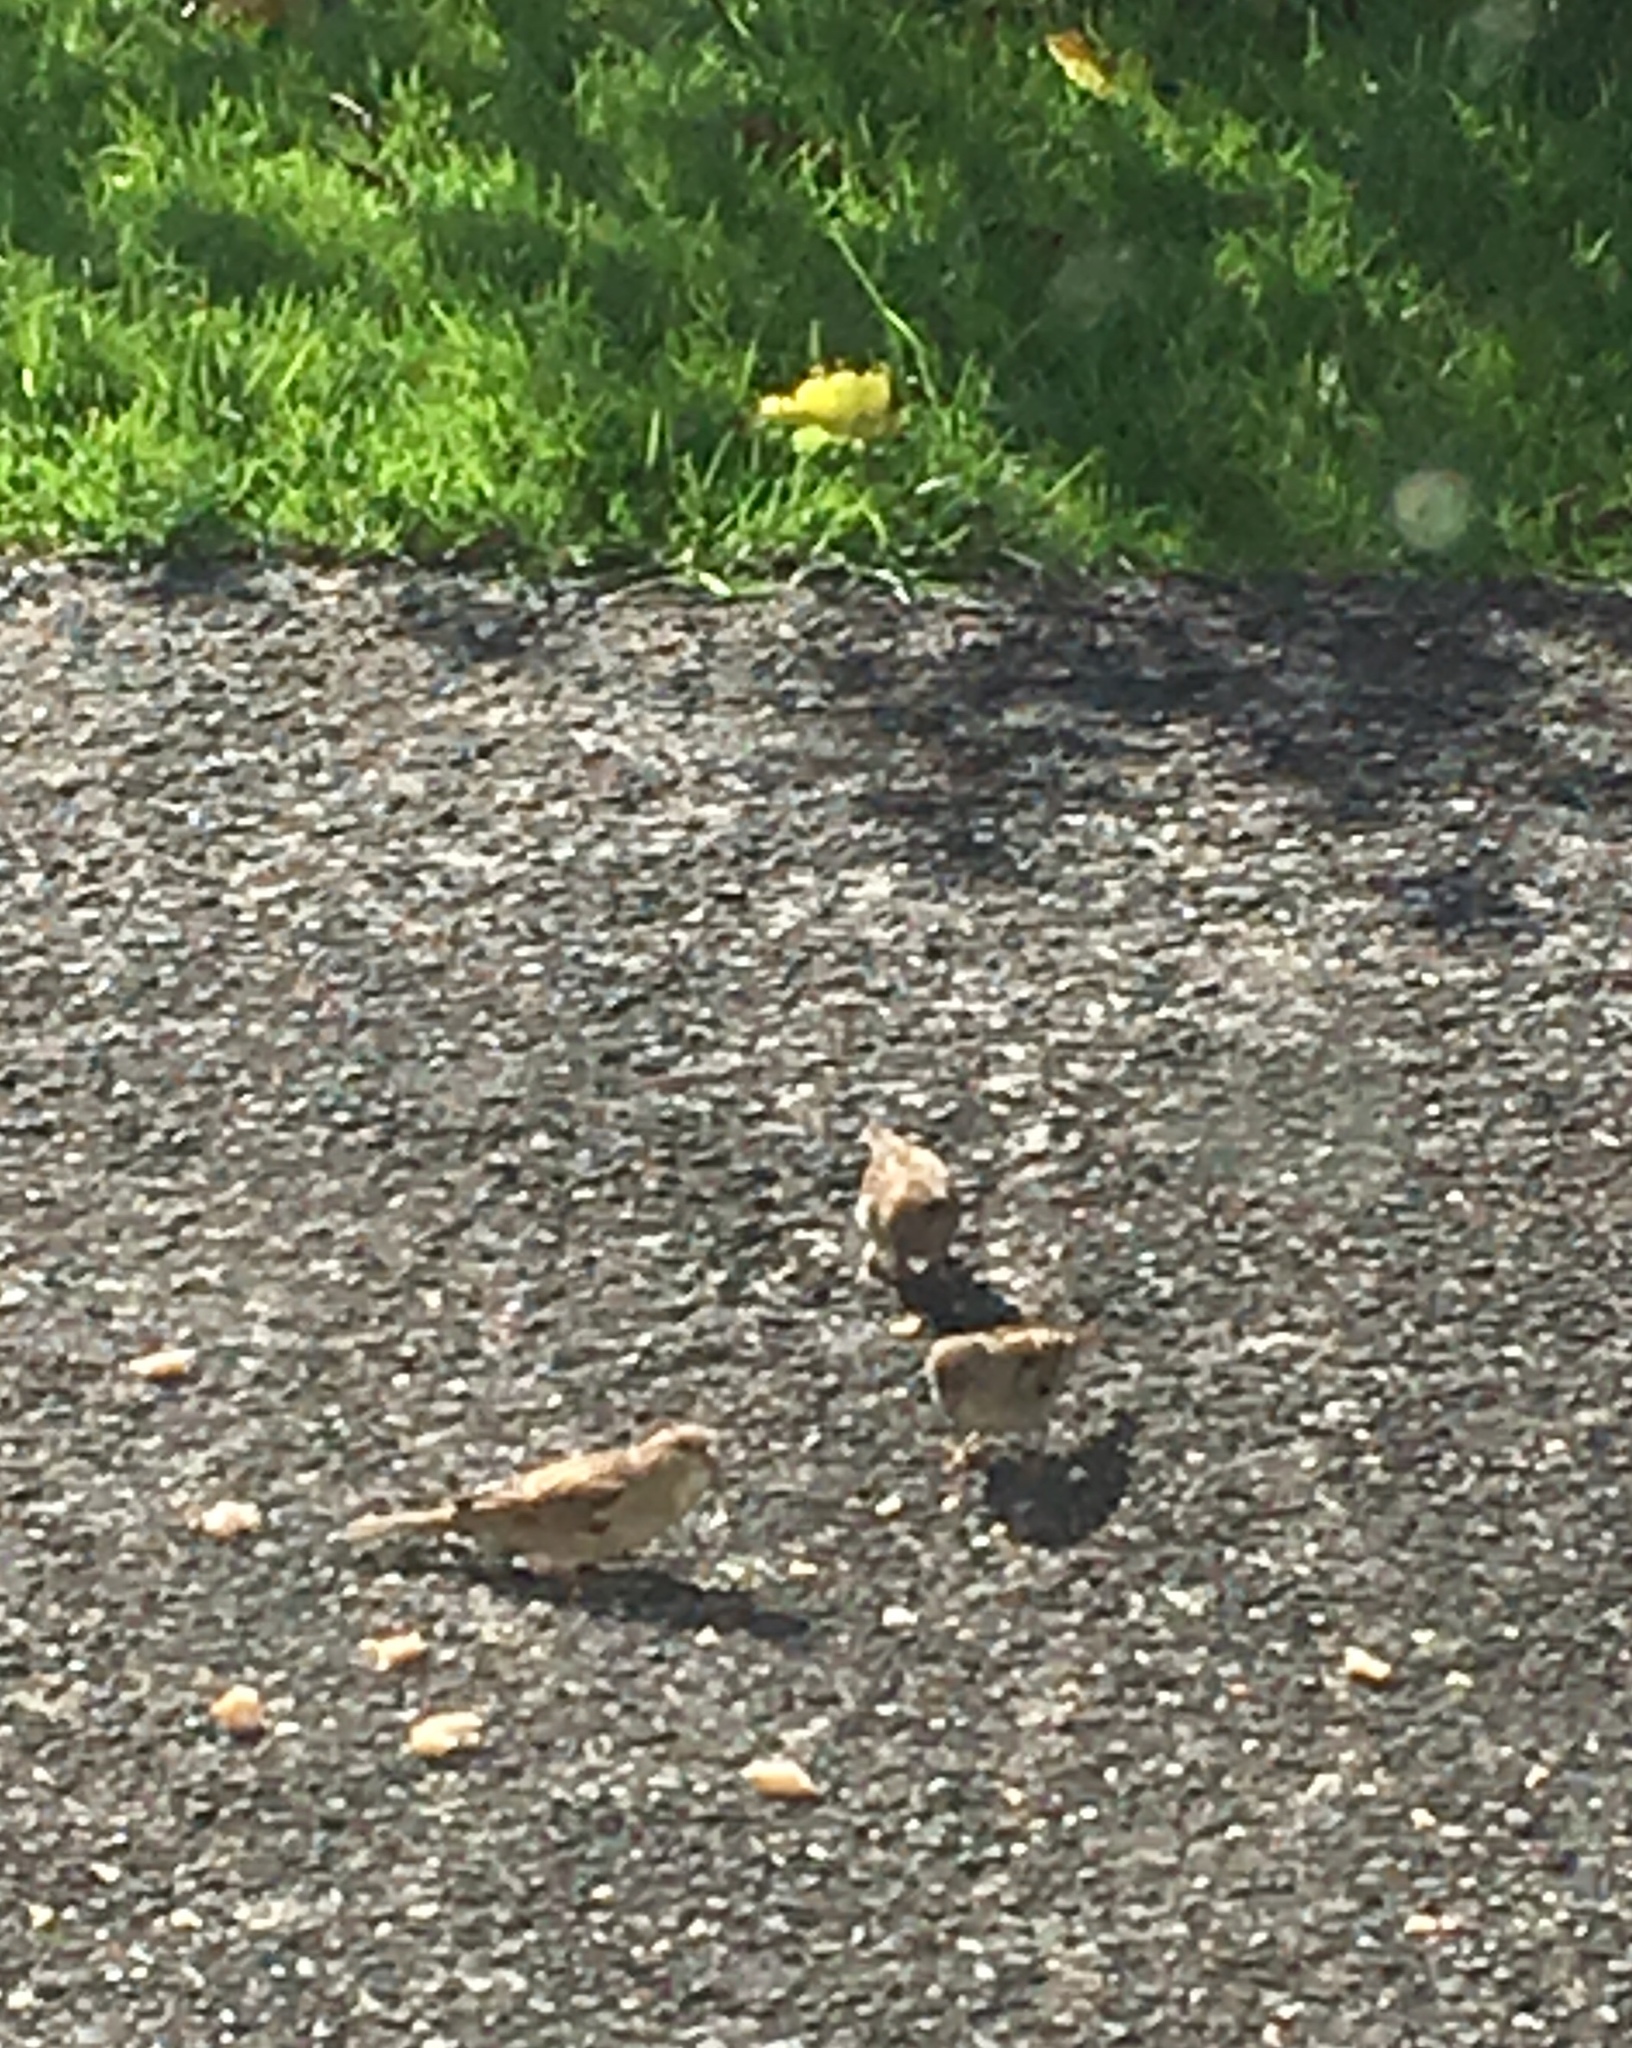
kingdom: Animalia
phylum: Chordata
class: Aves
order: Passeriformes
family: Passeridae
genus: Passer
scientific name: Passer domesticus
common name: House sparrow
